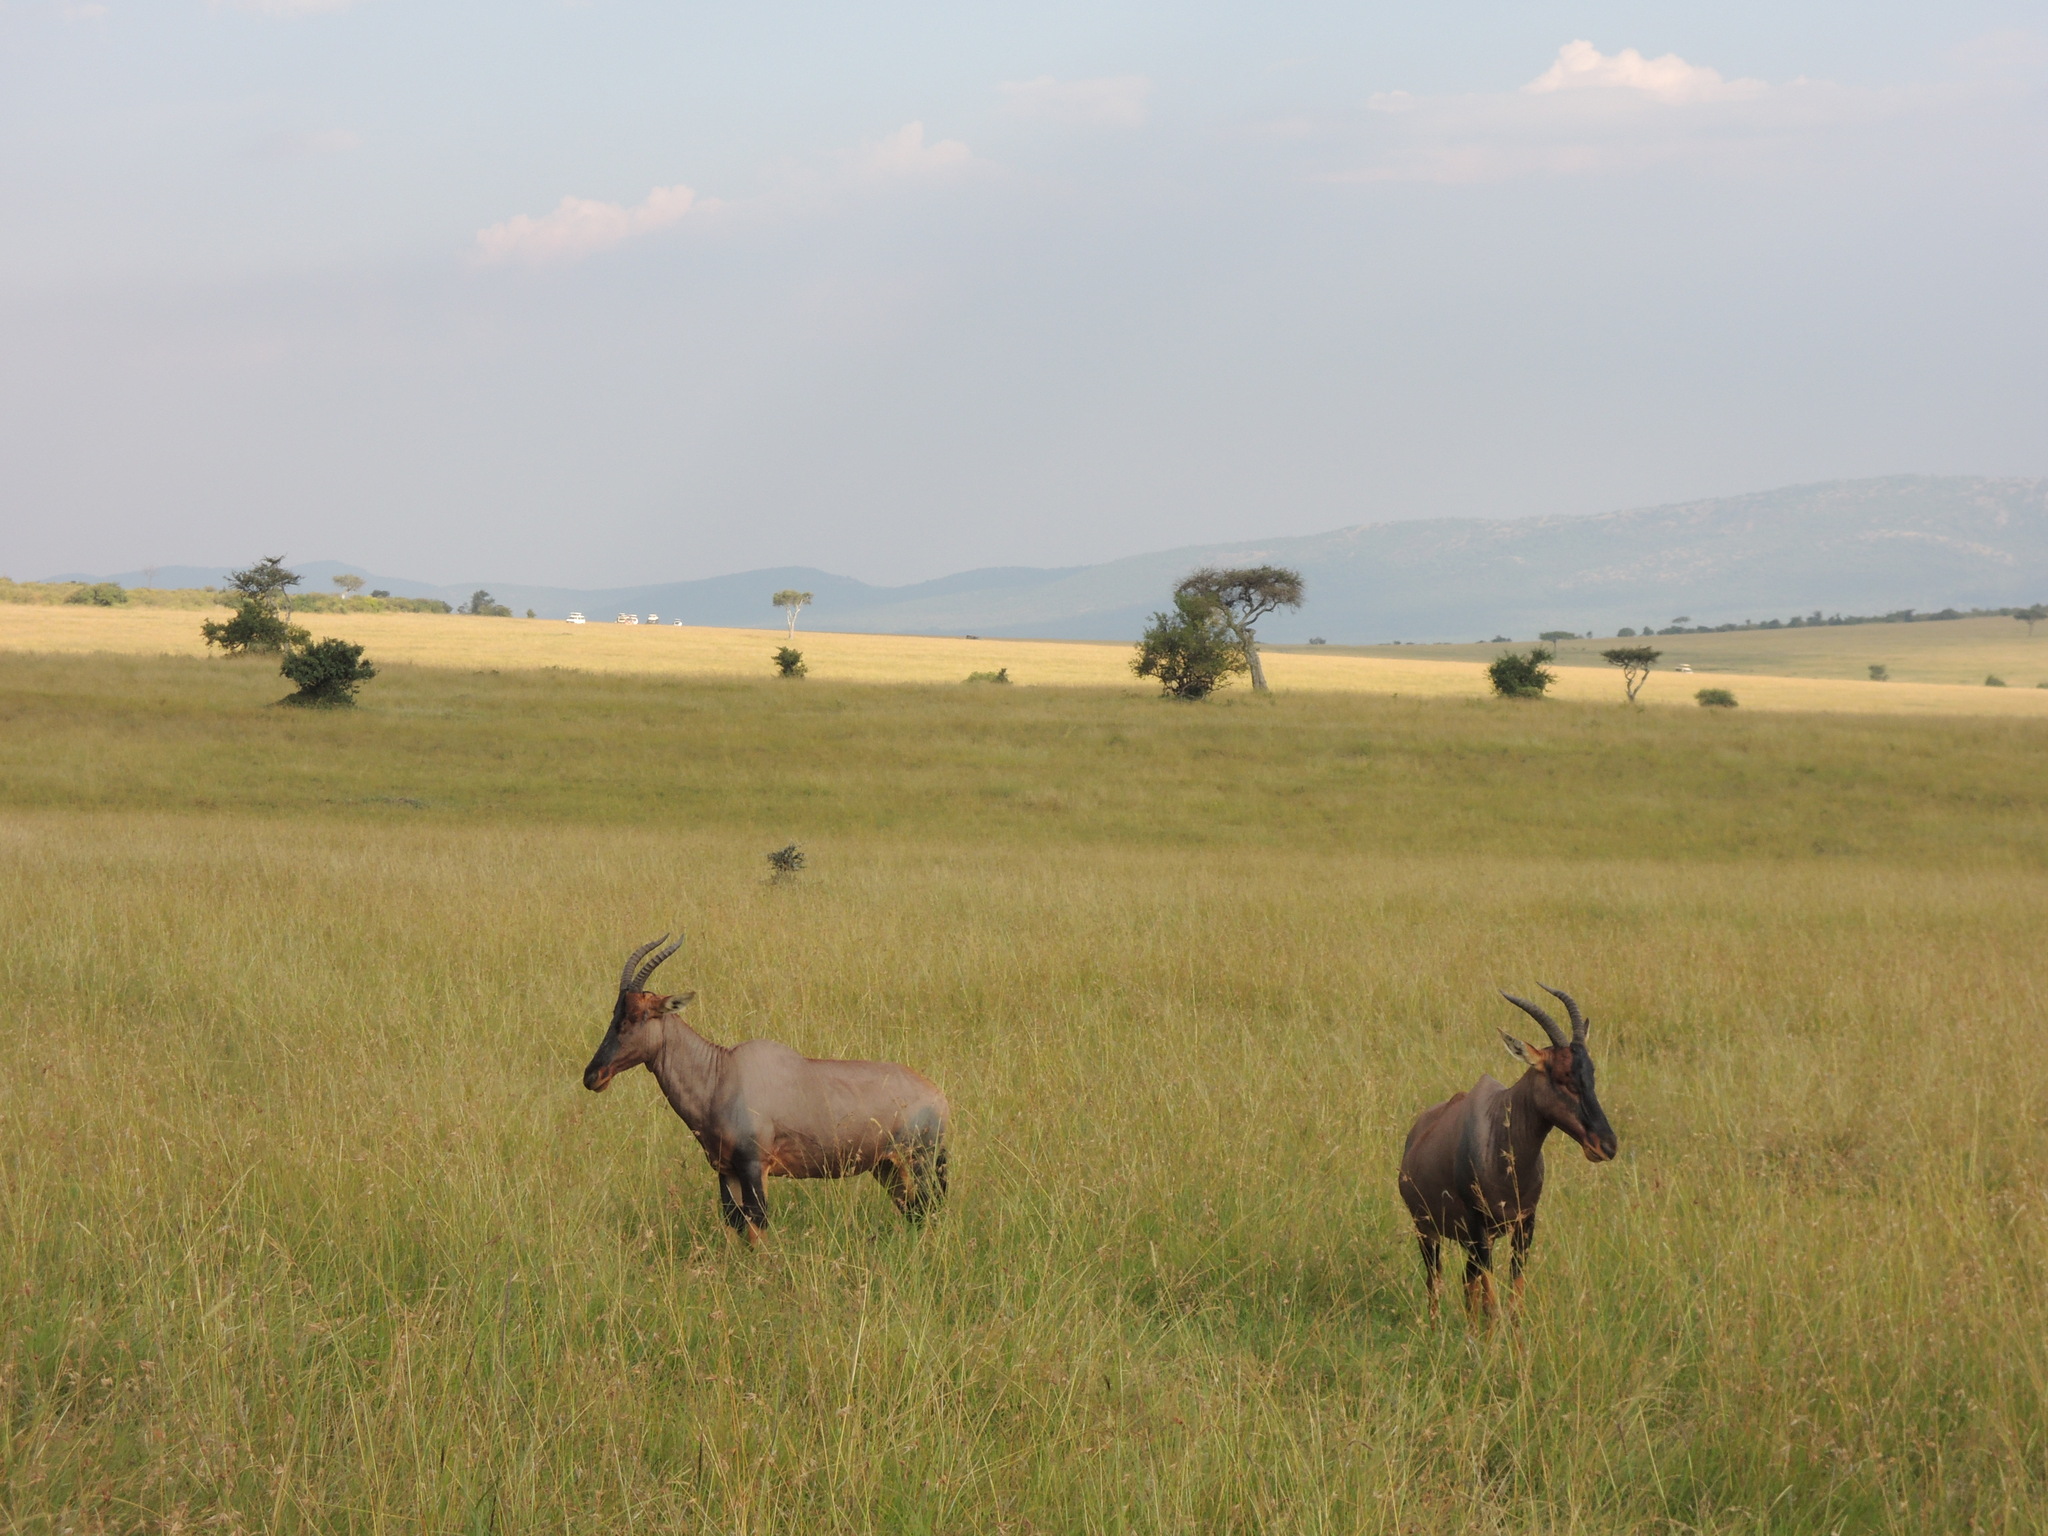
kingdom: Animalia
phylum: Chordata
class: Mammalia
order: Artiodactyla
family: Bovidae
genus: Damaliscus
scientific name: Damaliscus korrigum
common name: Topi
